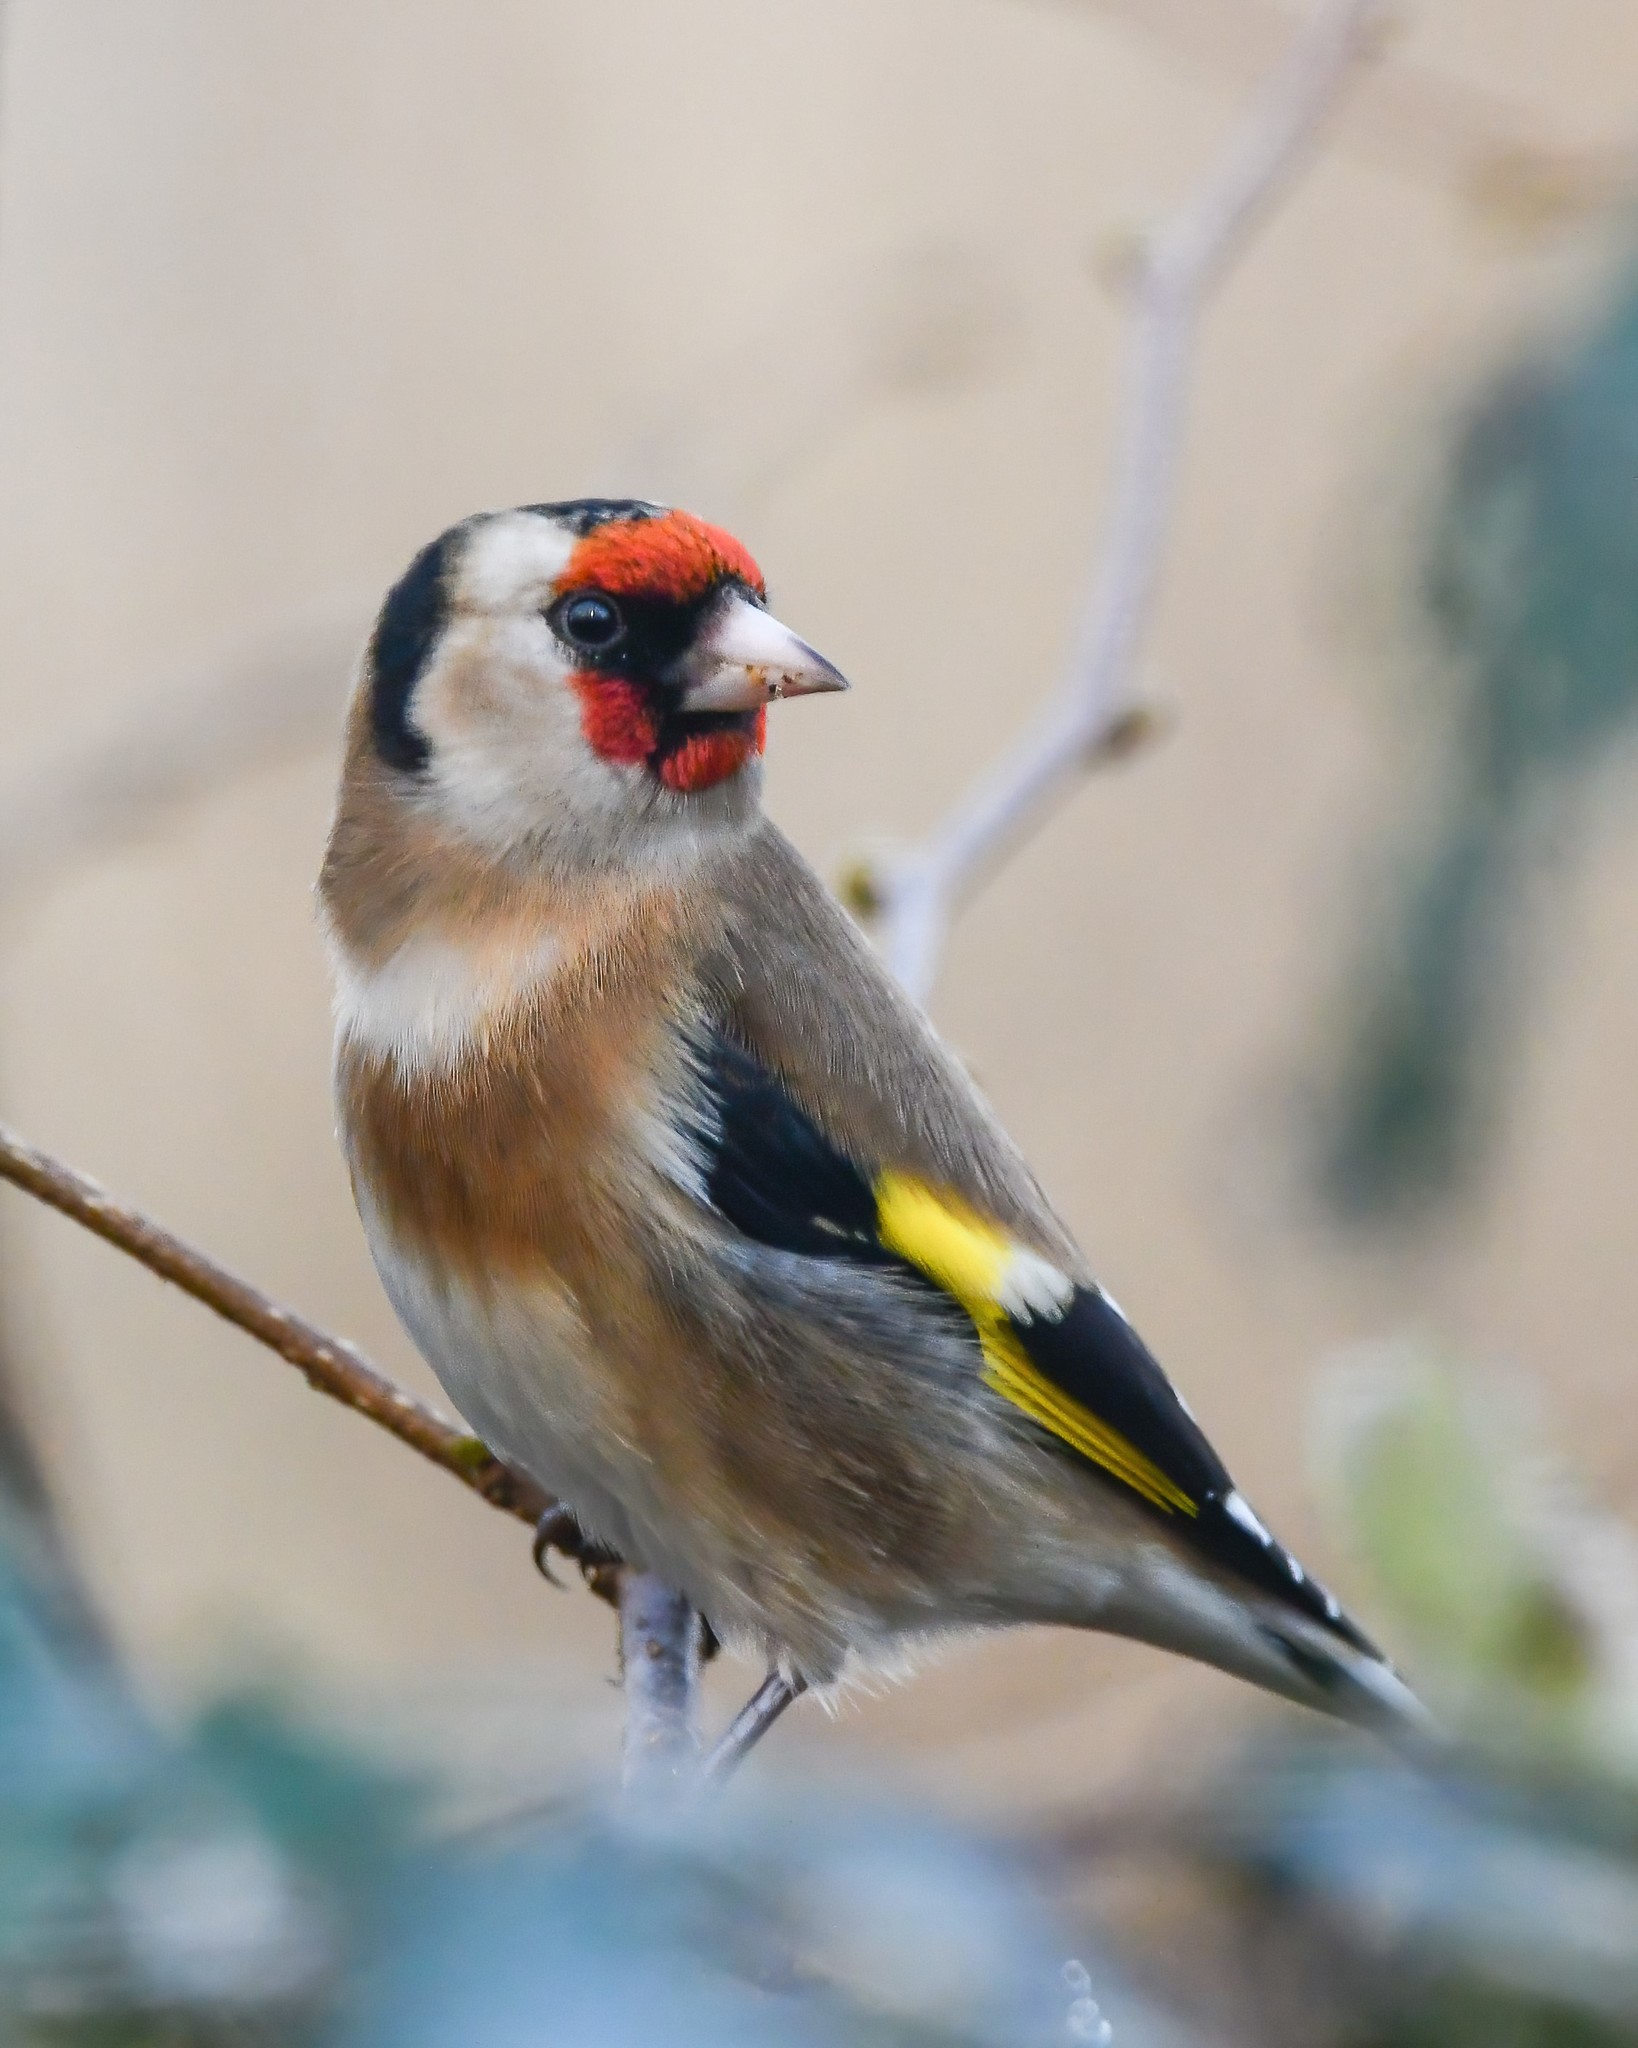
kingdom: Animalia
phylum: Chordata
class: Aves
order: Passeriformes
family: Fringillidae
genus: Carduelis
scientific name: Carduelis carduelis
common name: European goldfinch
